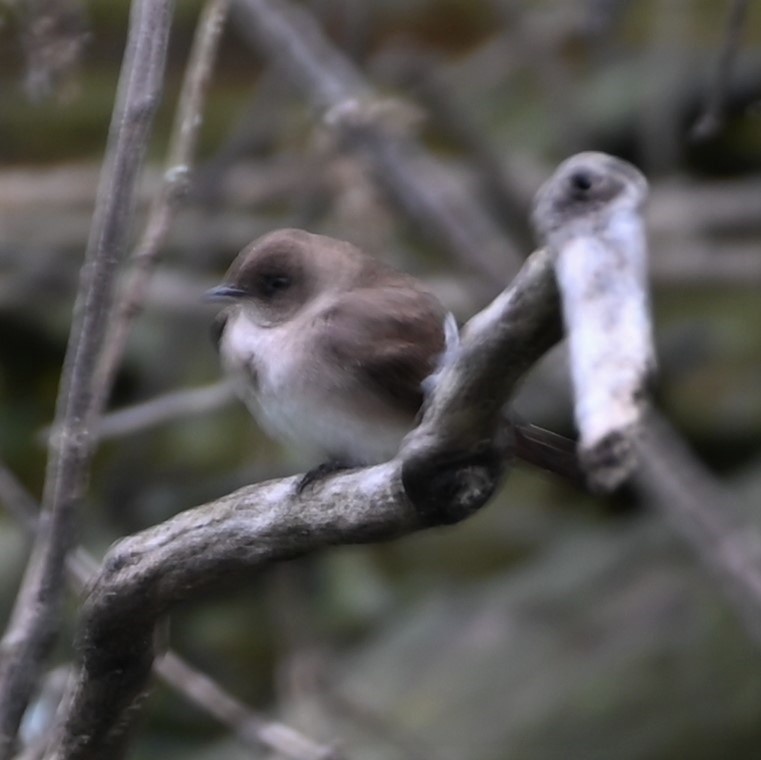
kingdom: Animalia
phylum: Chordata
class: Aves
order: Passeriformes
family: Hirundinidae
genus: Stelgidopteryx
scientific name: Stelgidopteryx serripennis
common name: Northern rough-winged swallow
